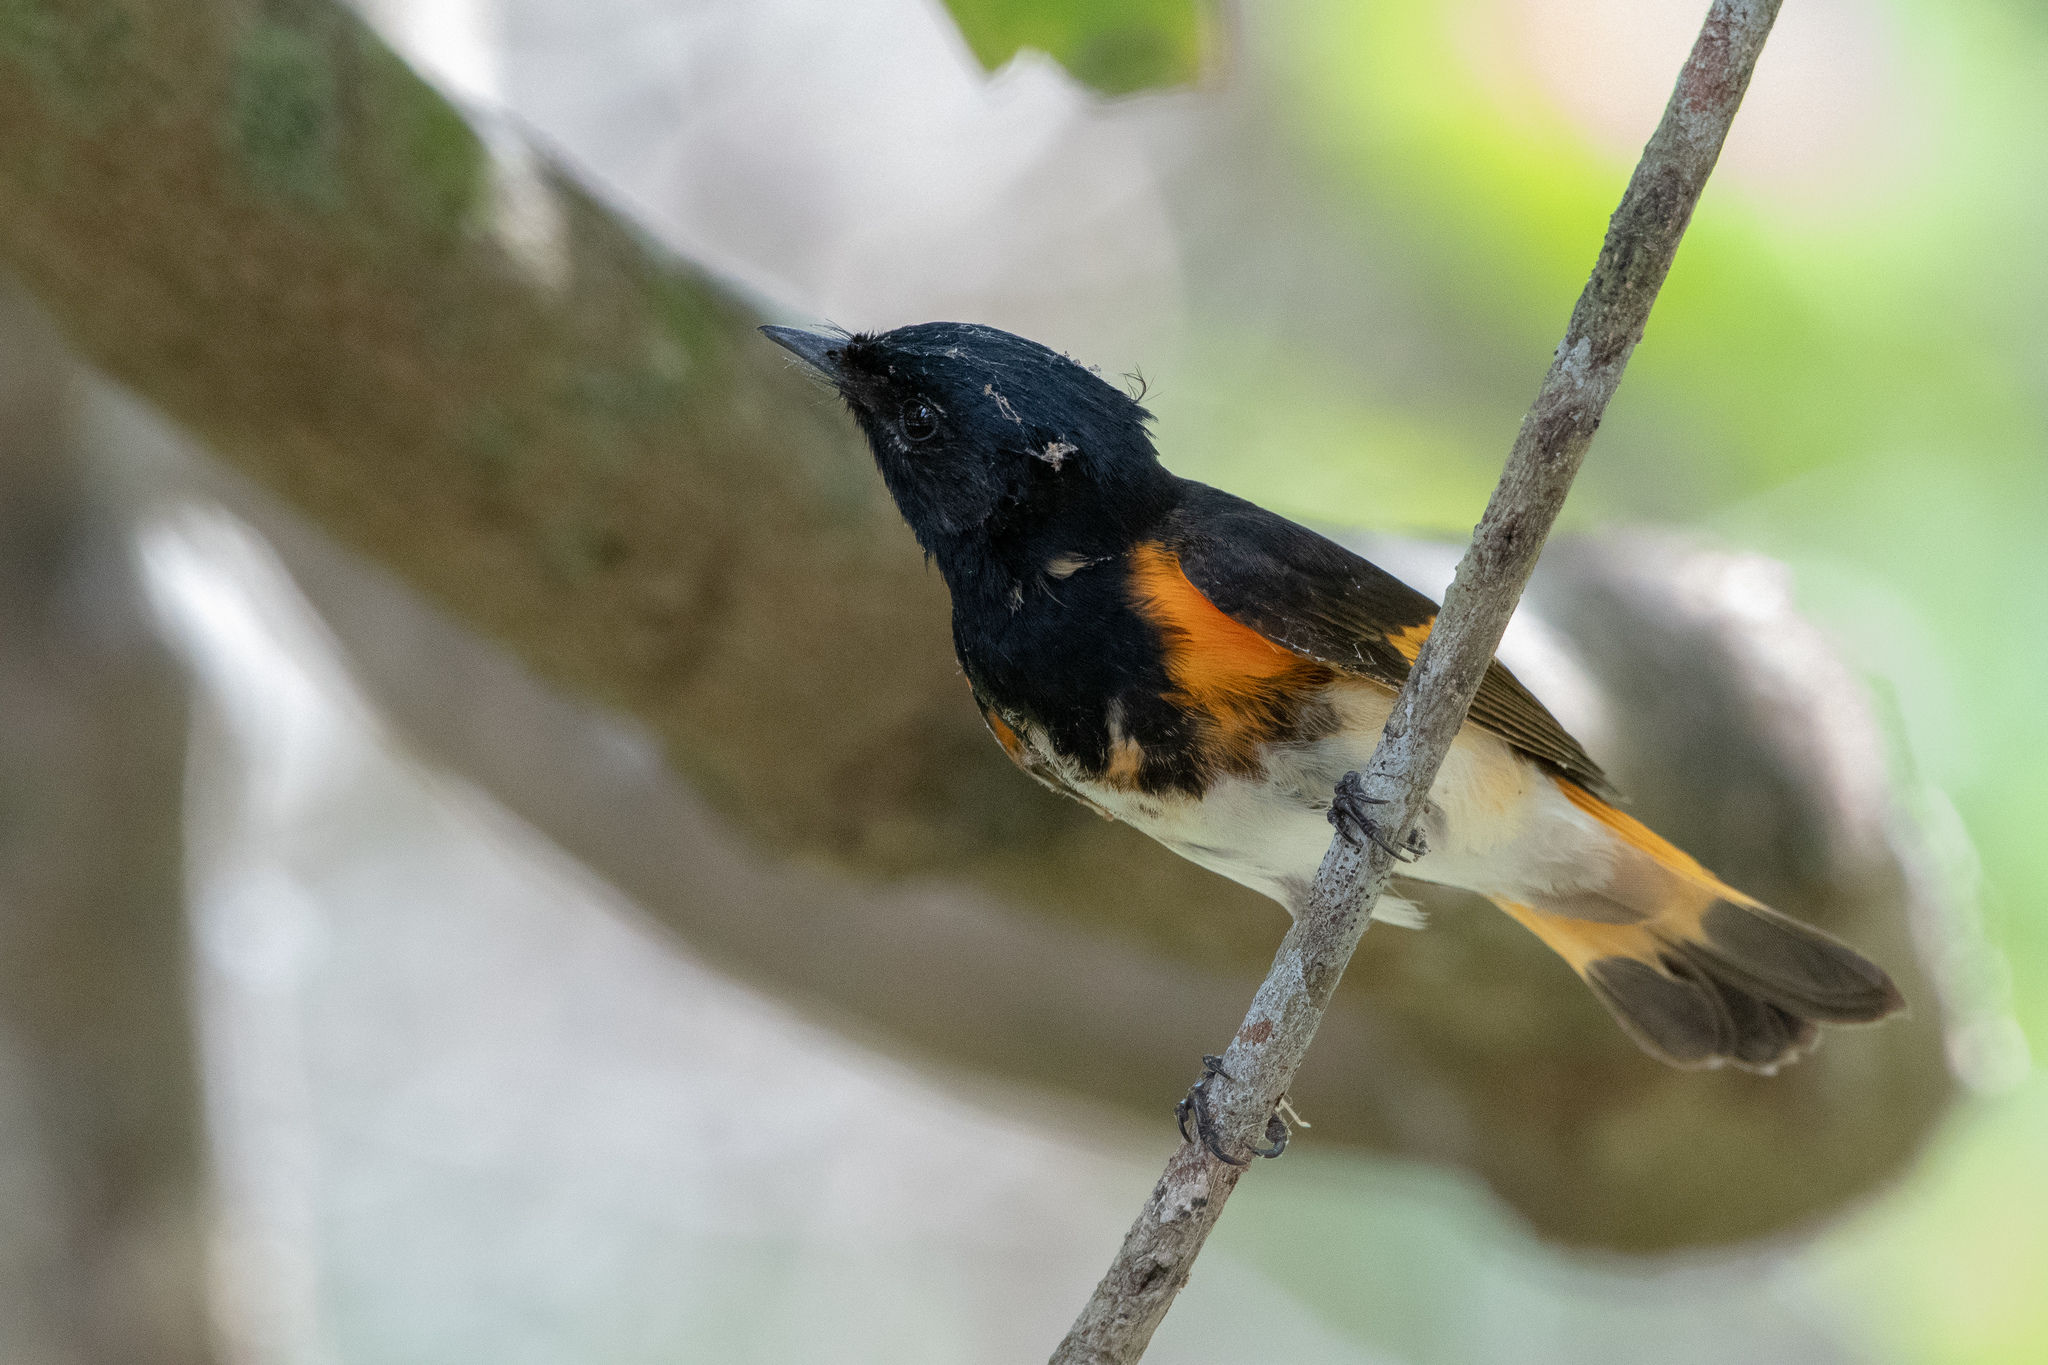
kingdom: Animalia
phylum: Chordata
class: Aves
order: Passeriformes
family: Parulidae
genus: Setophaga
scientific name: Setophaga ruticilla
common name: American redstart
